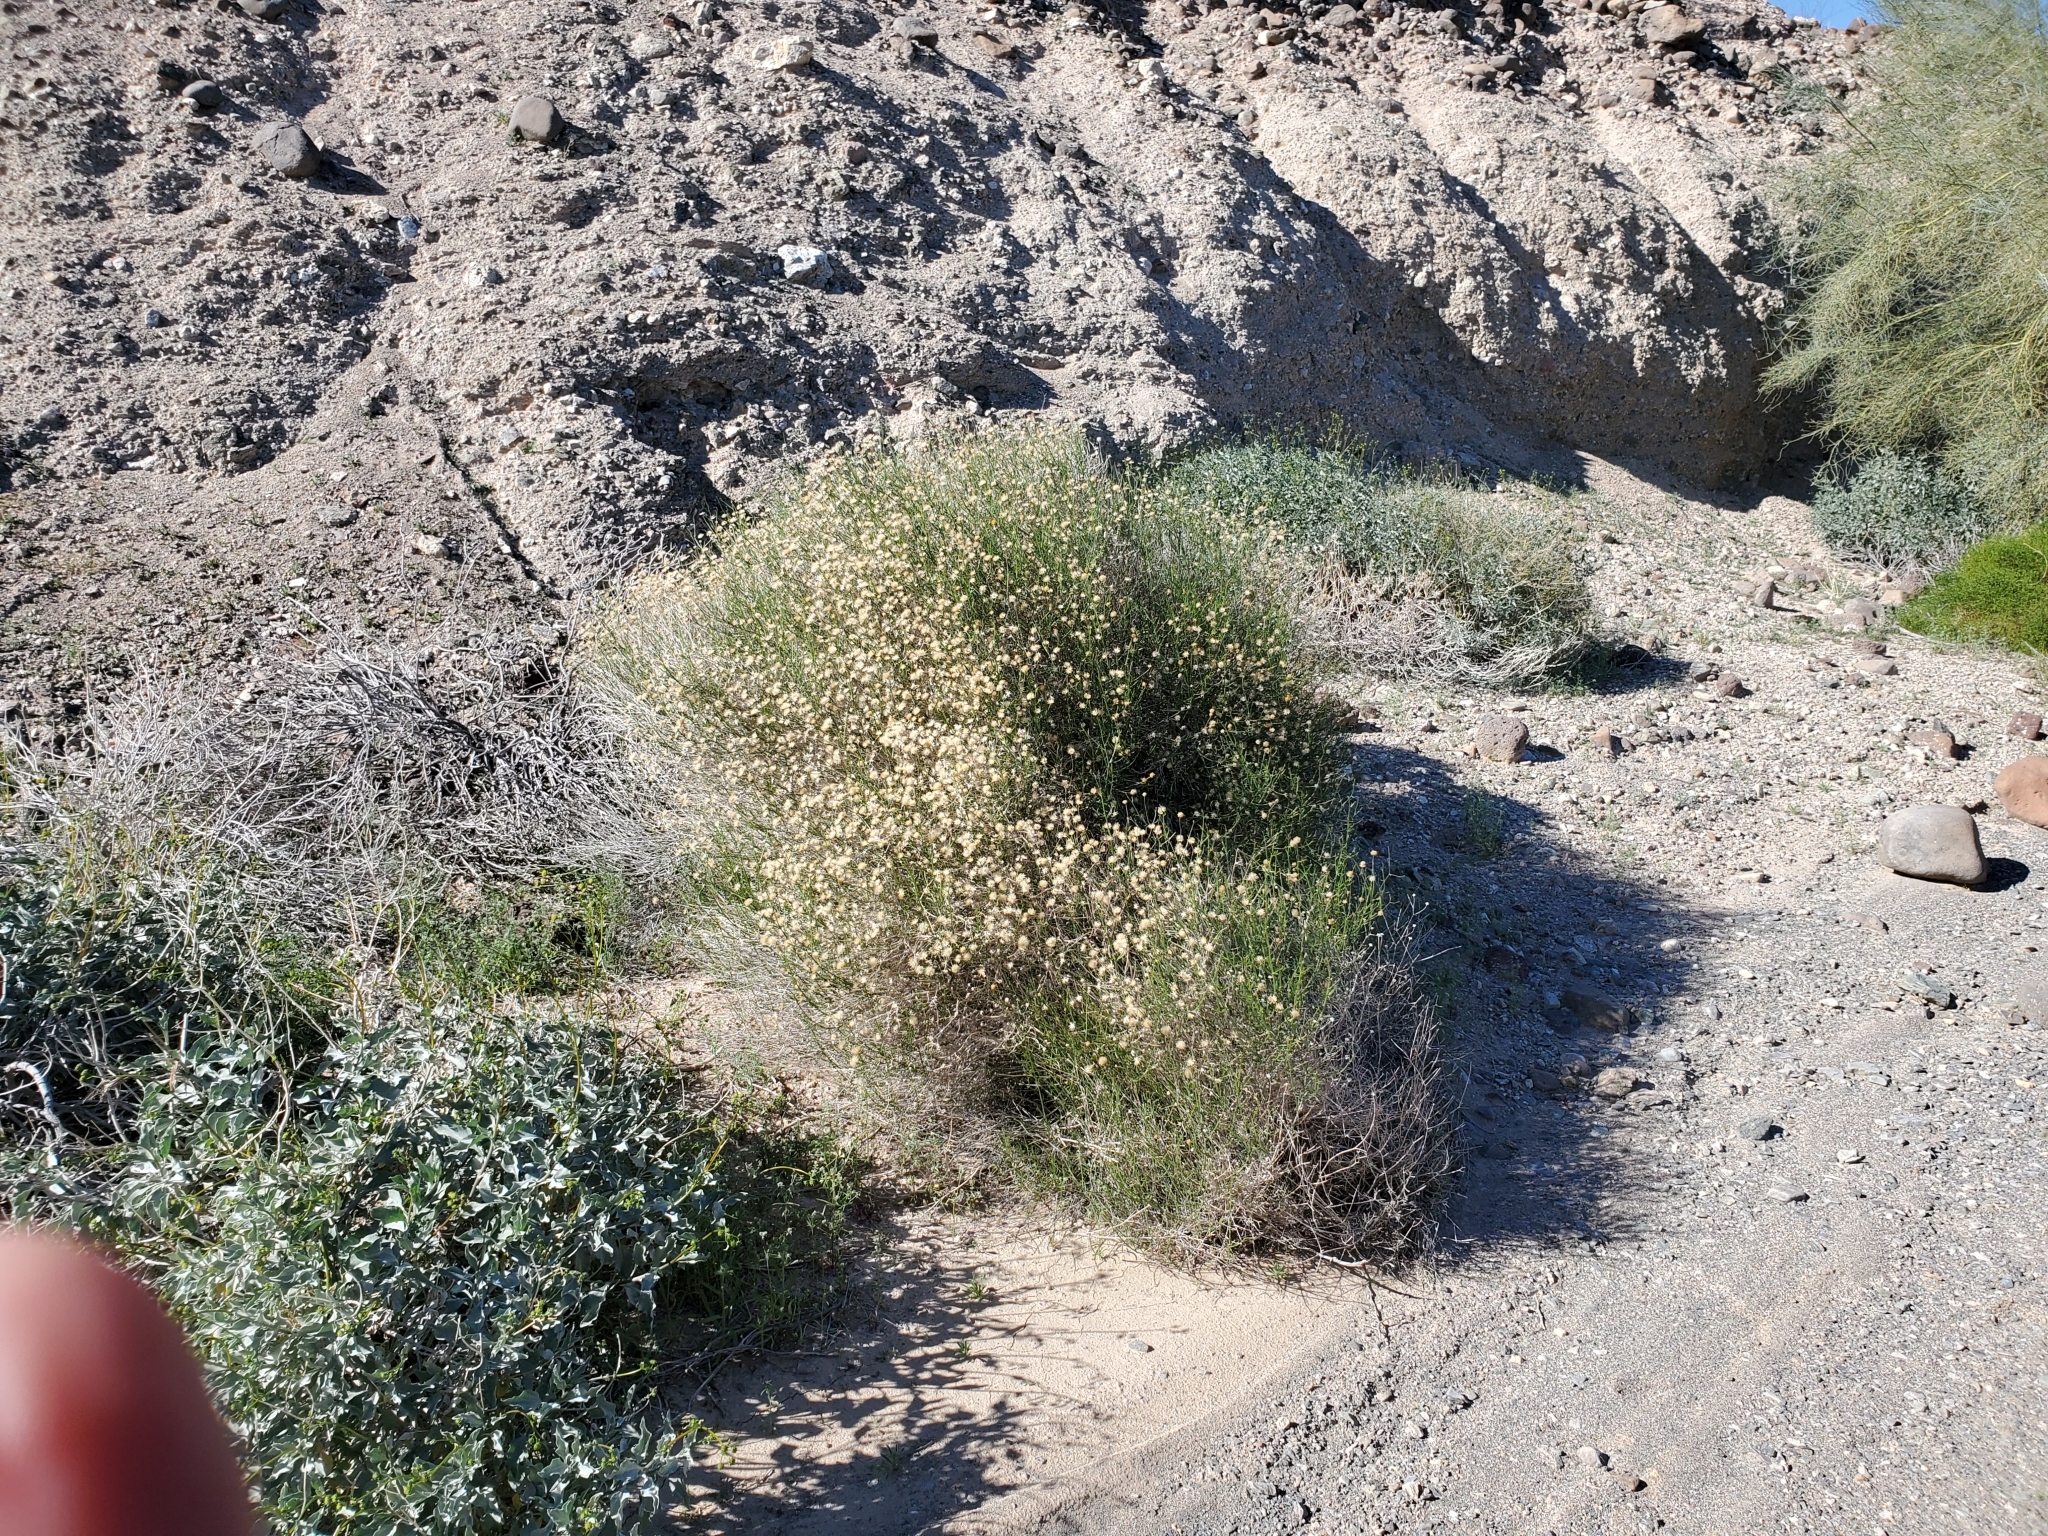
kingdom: Plantae
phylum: Tracheophyta
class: Magnoliopsida
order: Asterales
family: Asteraceae
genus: Bebbia
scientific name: Bebbia juncea
